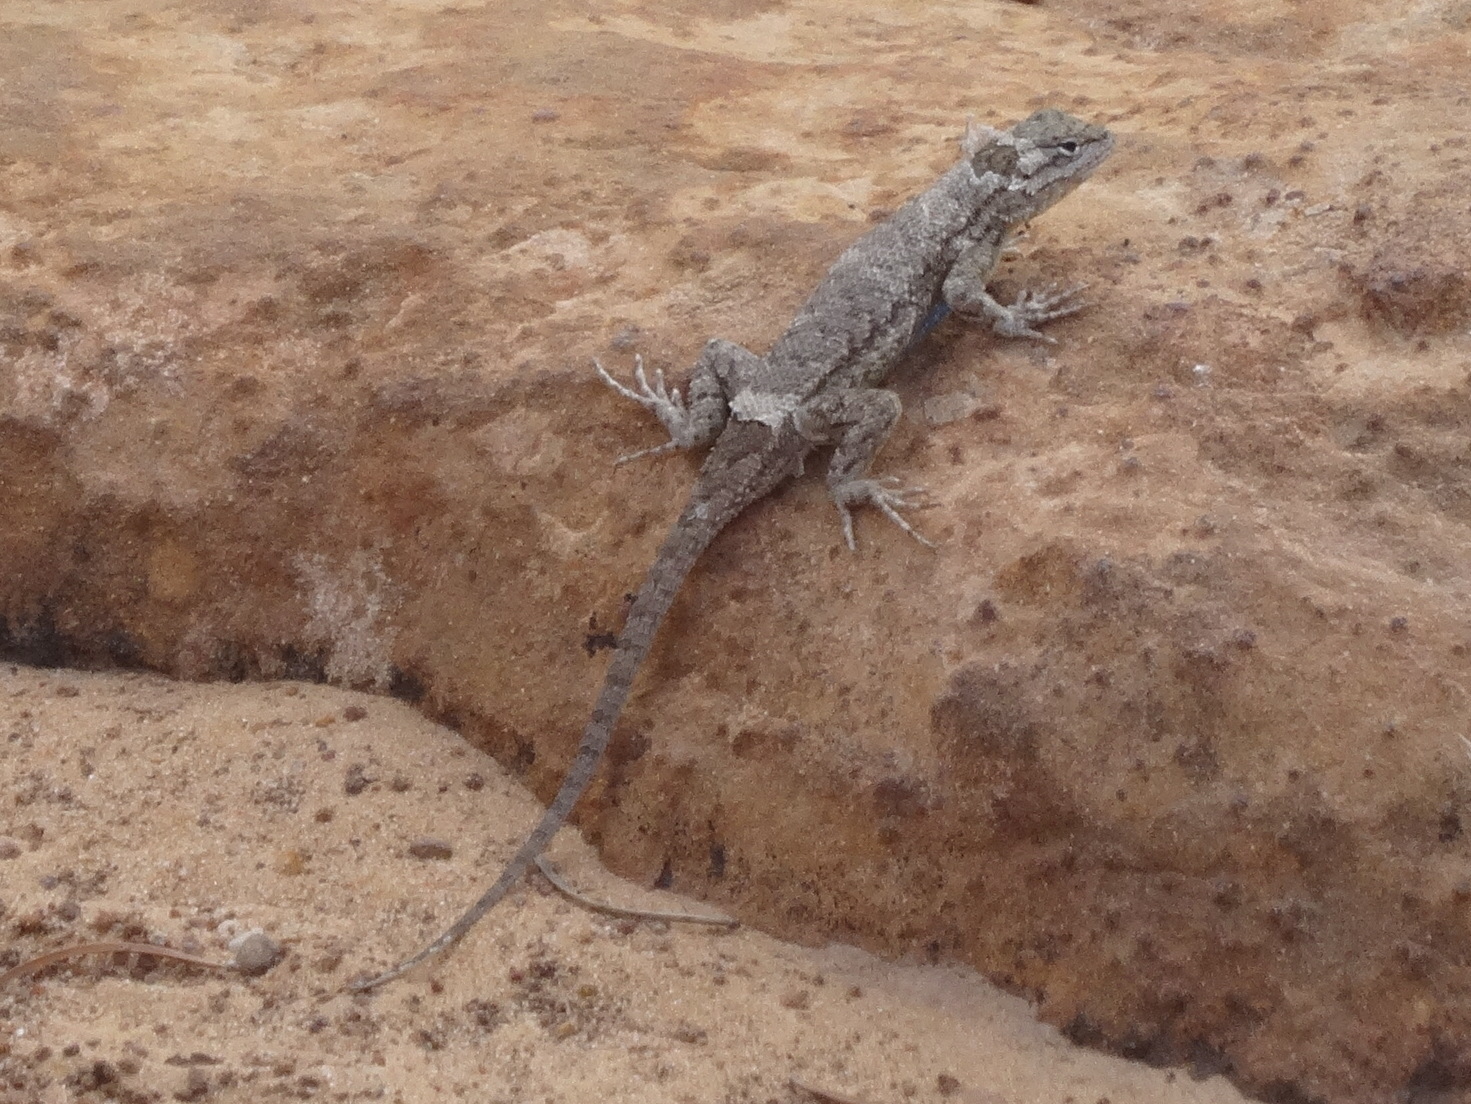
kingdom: Animalia
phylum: Chordata
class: Squamata
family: Phrynosomatidae
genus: Sceloporus
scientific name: Sceloporus tristichus
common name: Plateau fence lizard
